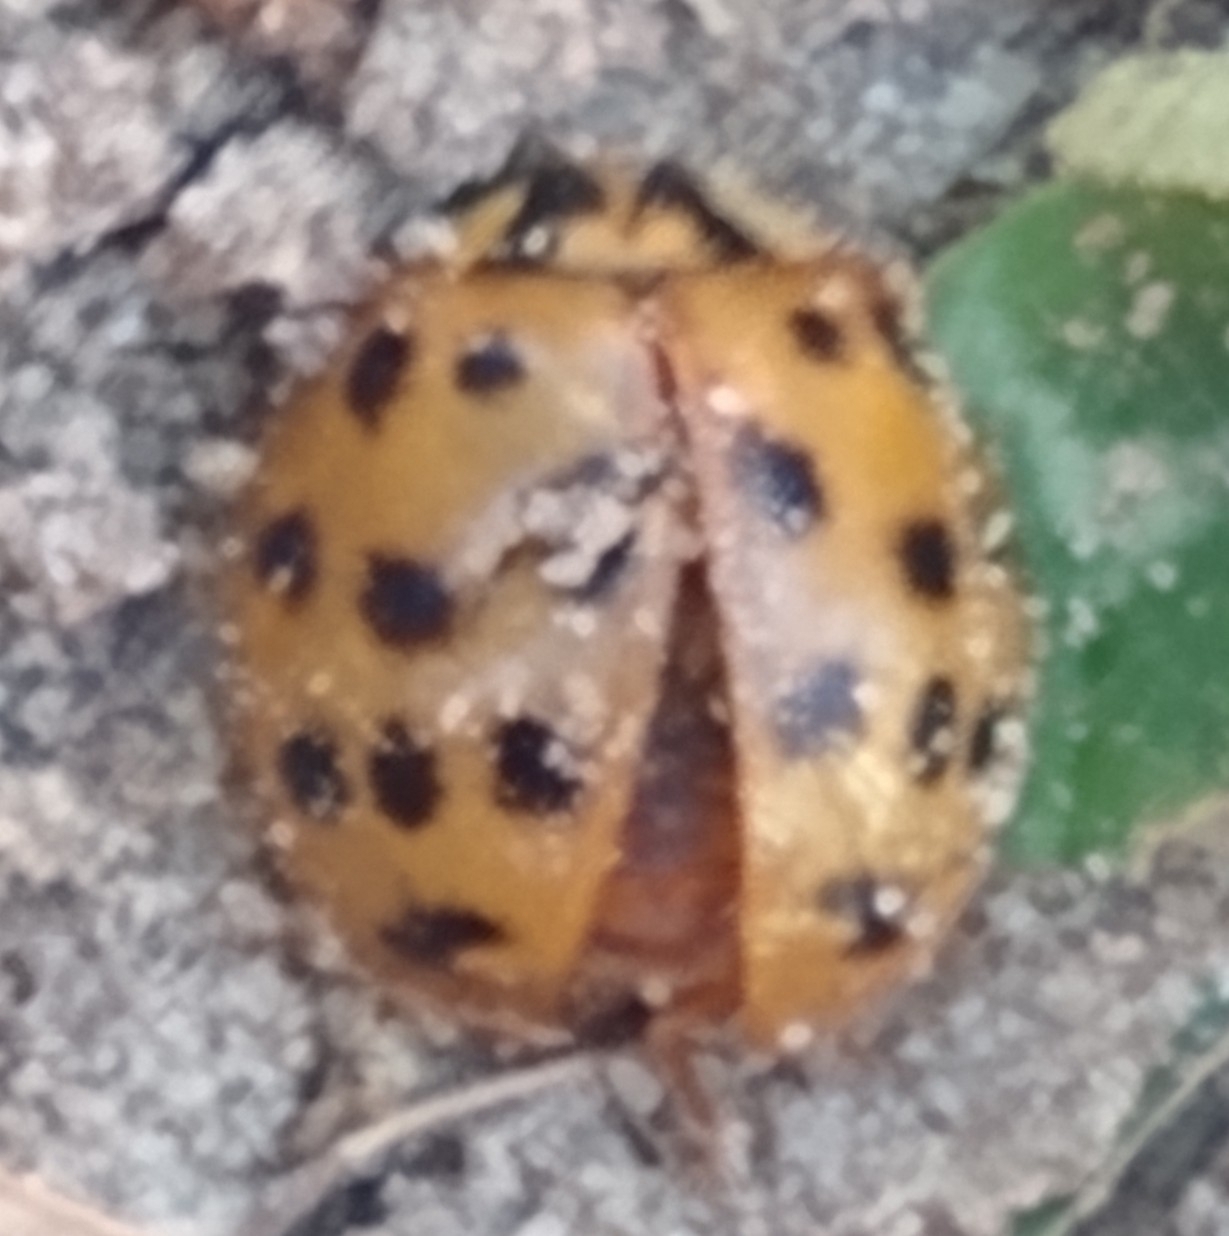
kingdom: Animalia
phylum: Arthropoda
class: Insecta
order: Coleoptera
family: Coccinellidae
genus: Harmonia
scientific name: Harmonia axyridis
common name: Harlequin ladybird
